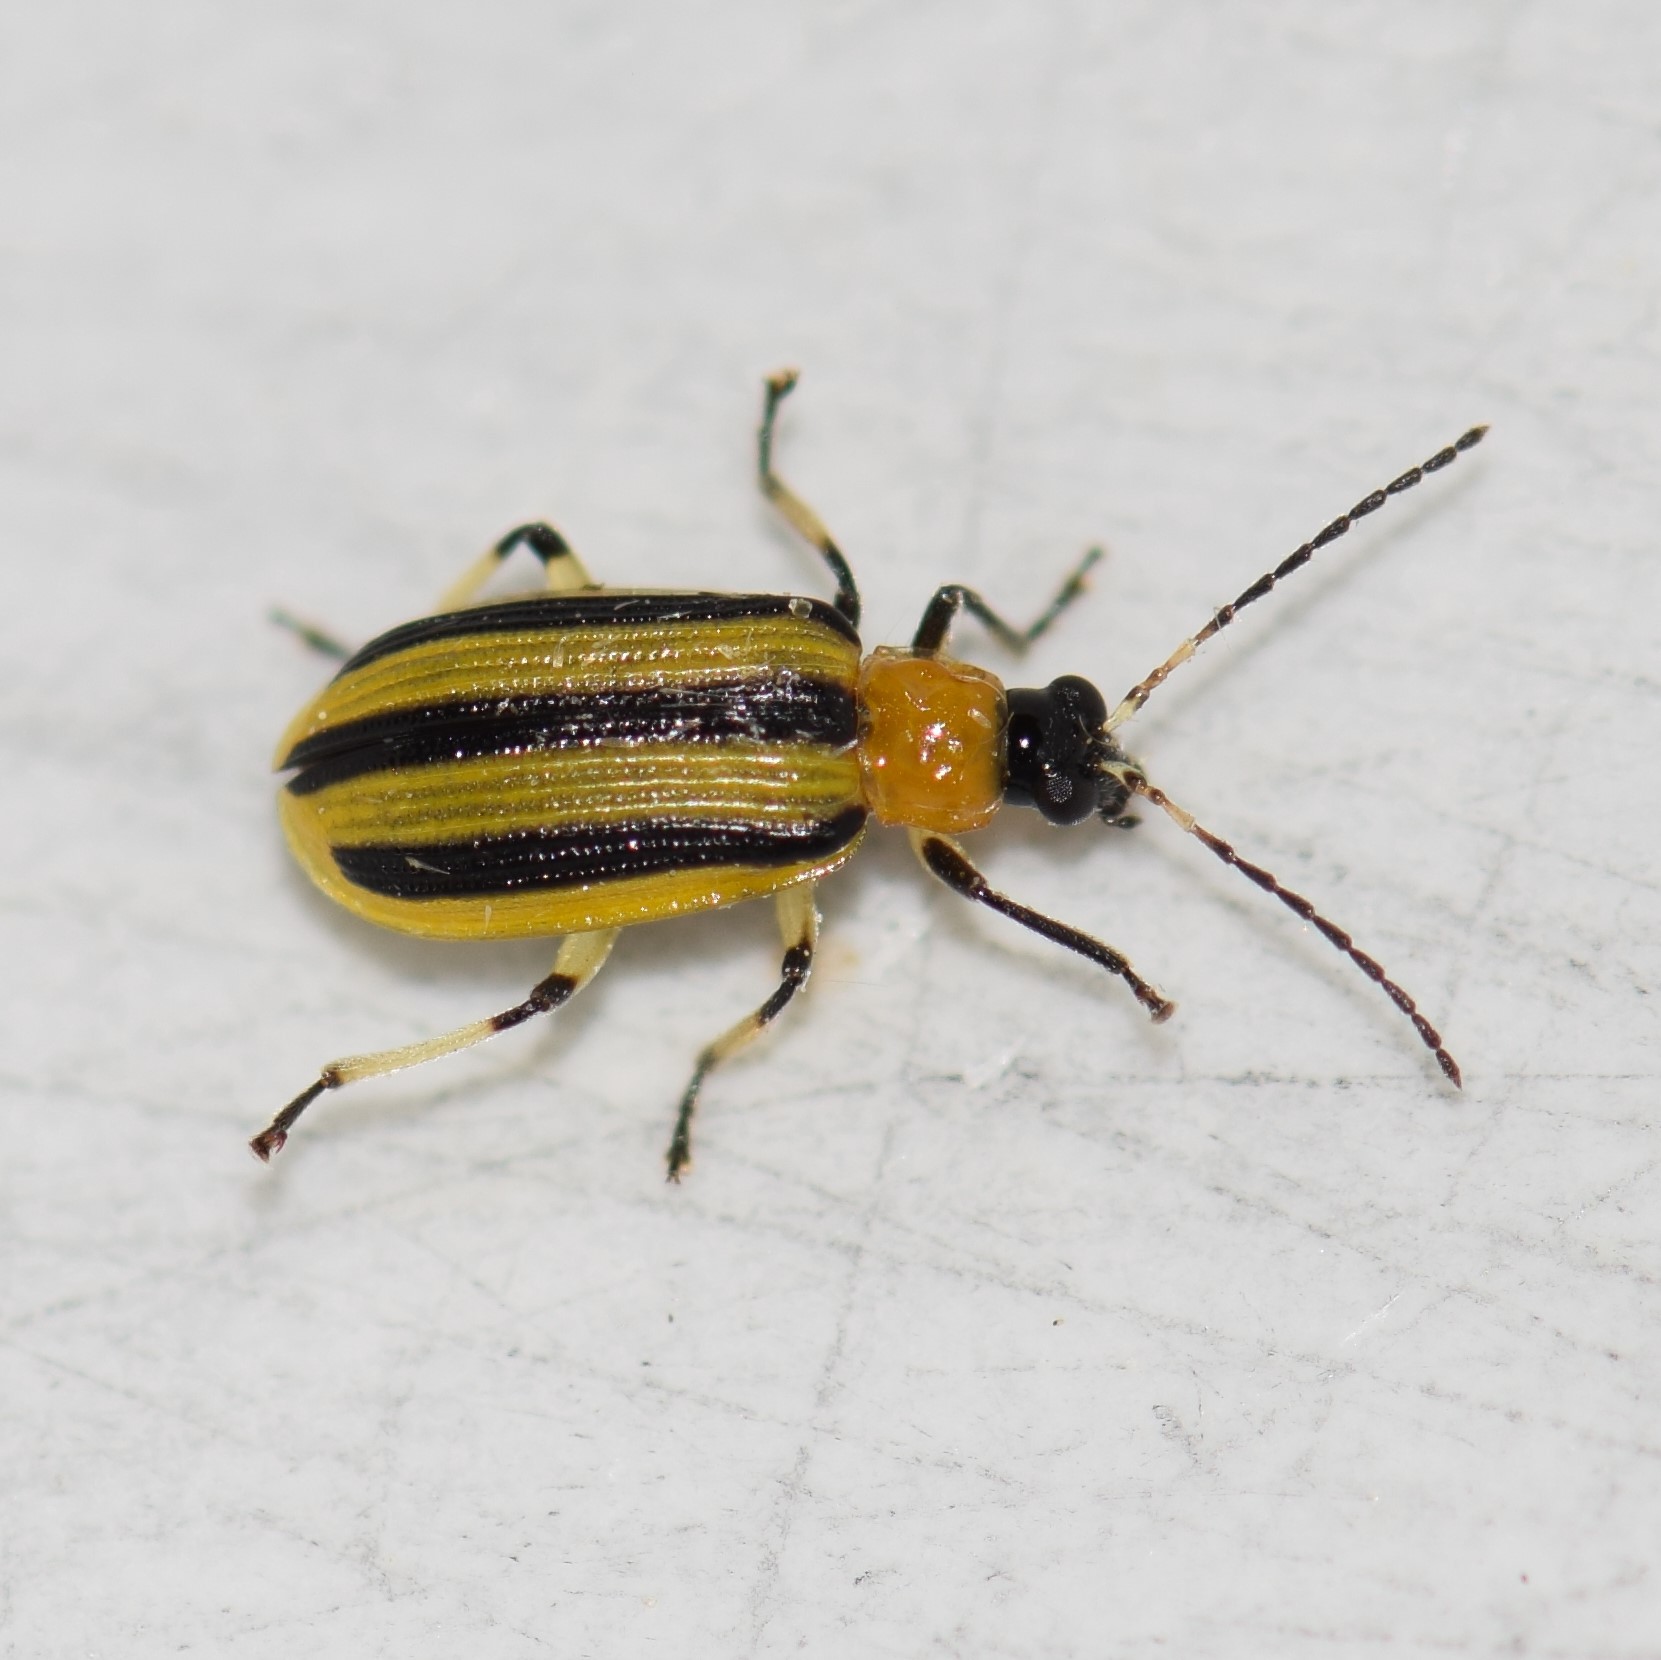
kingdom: Animalia
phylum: Arthropoda
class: Insecta
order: Coleoptera
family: Chrysomelidae
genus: Acalymma
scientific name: Acalymma vittatum
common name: Striped cucumber beetle
